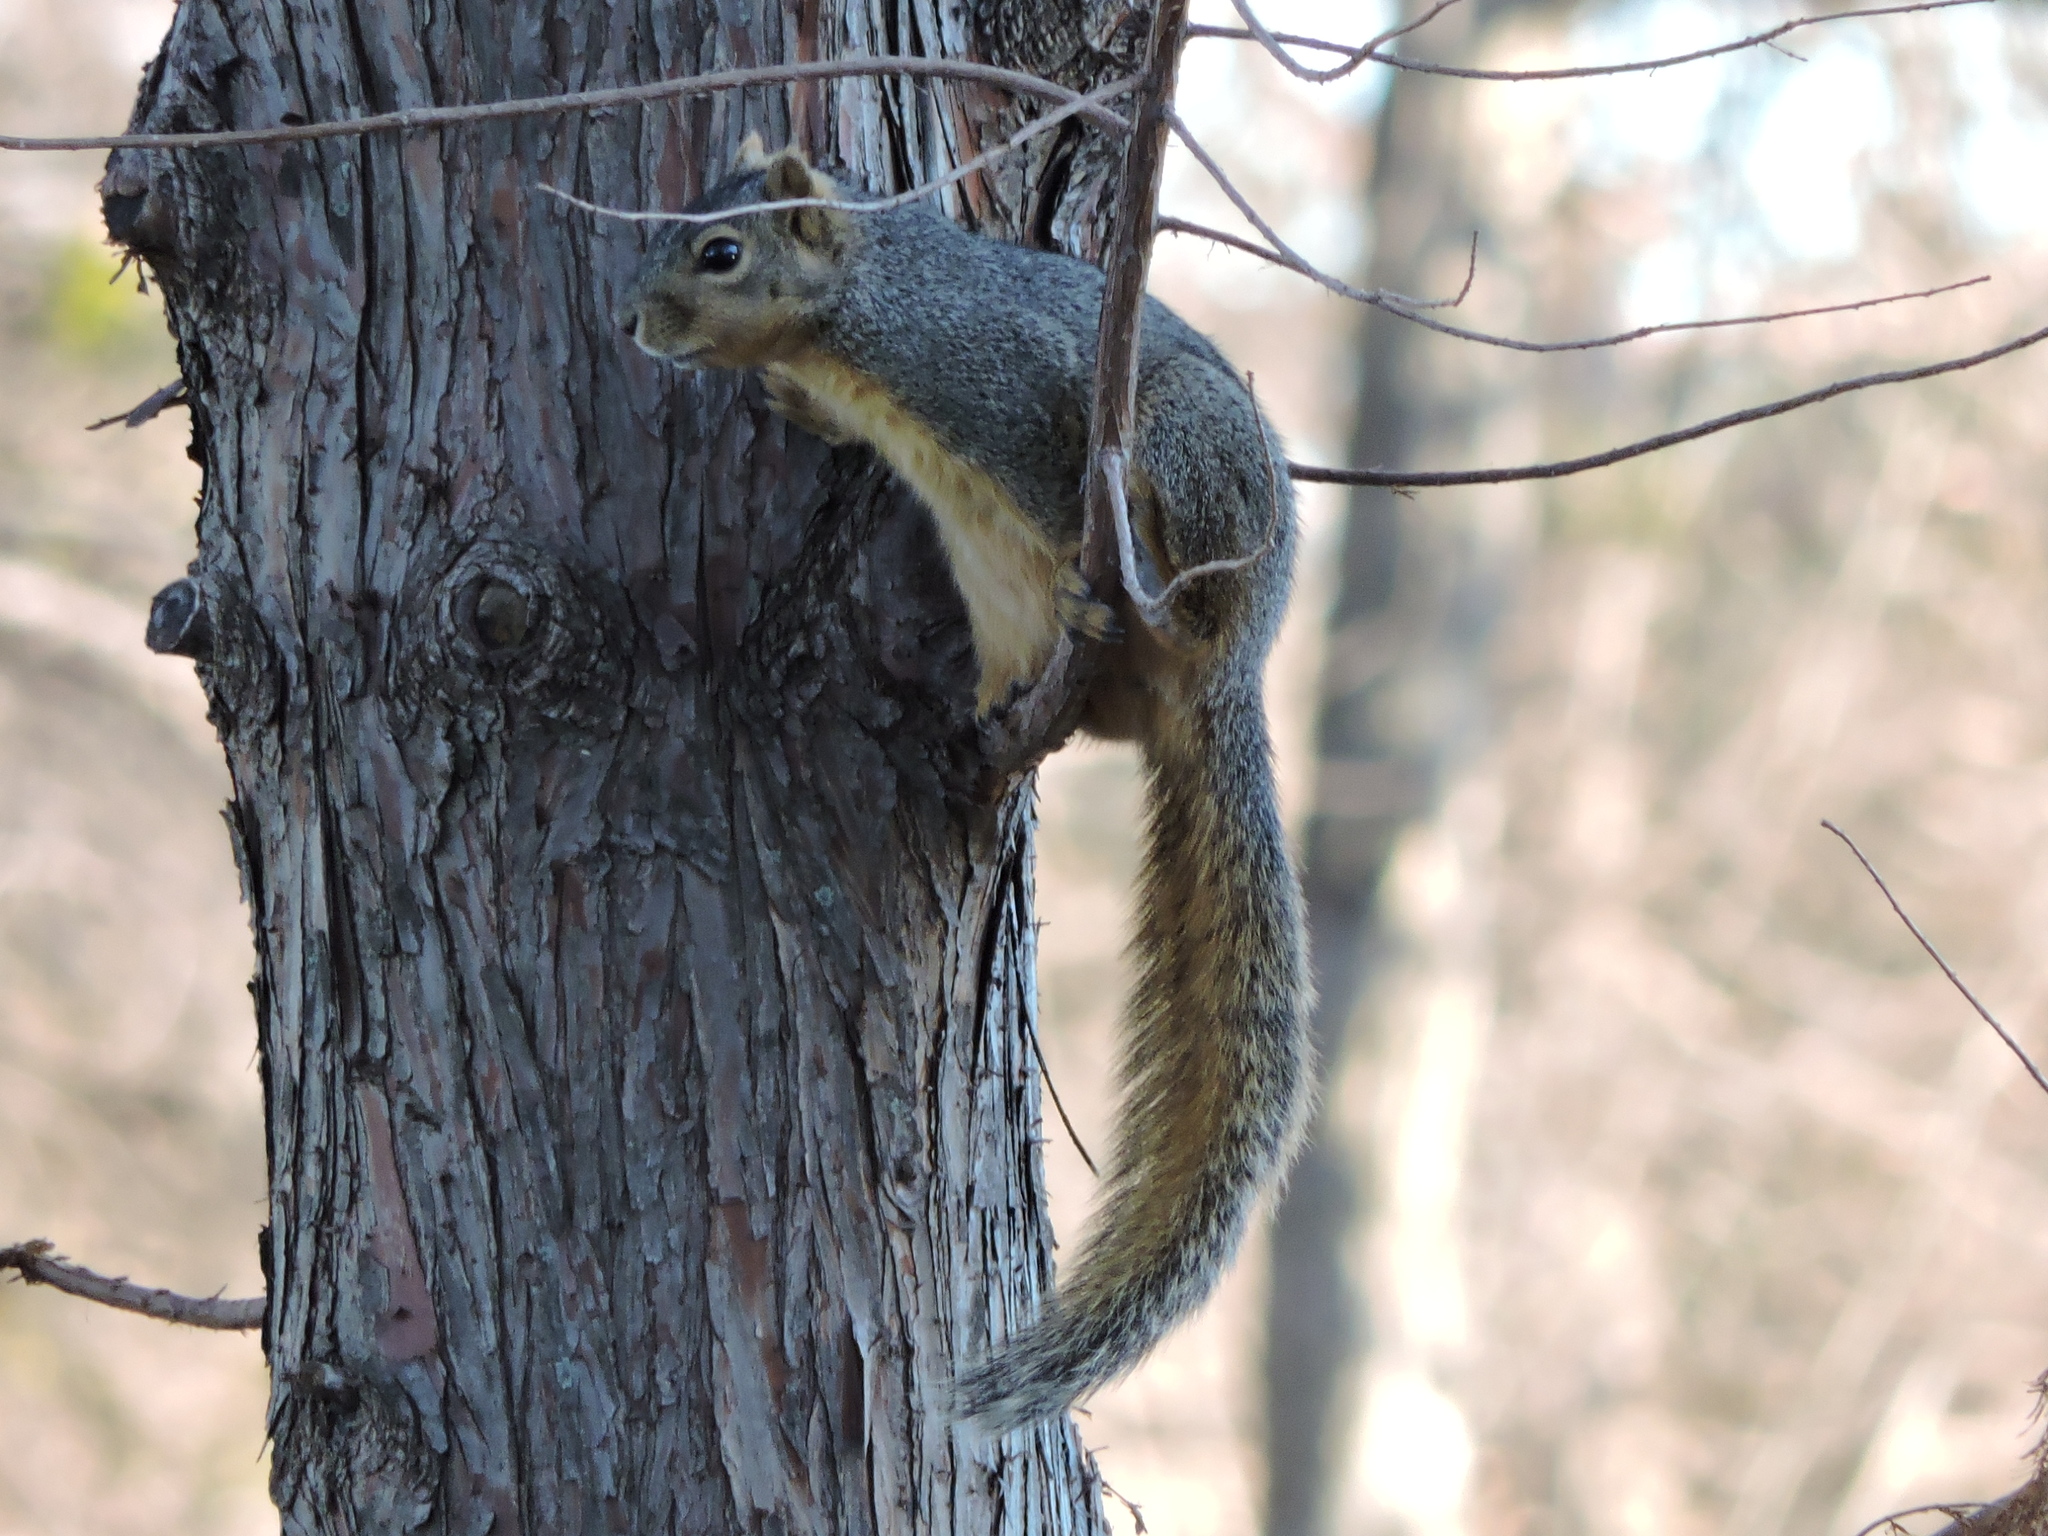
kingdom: Animalia
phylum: Chordata
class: Mammalia
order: Rodentia
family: Sciuridae
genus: Sciurus
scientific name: Sciurus niger
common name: Fox squirrel
